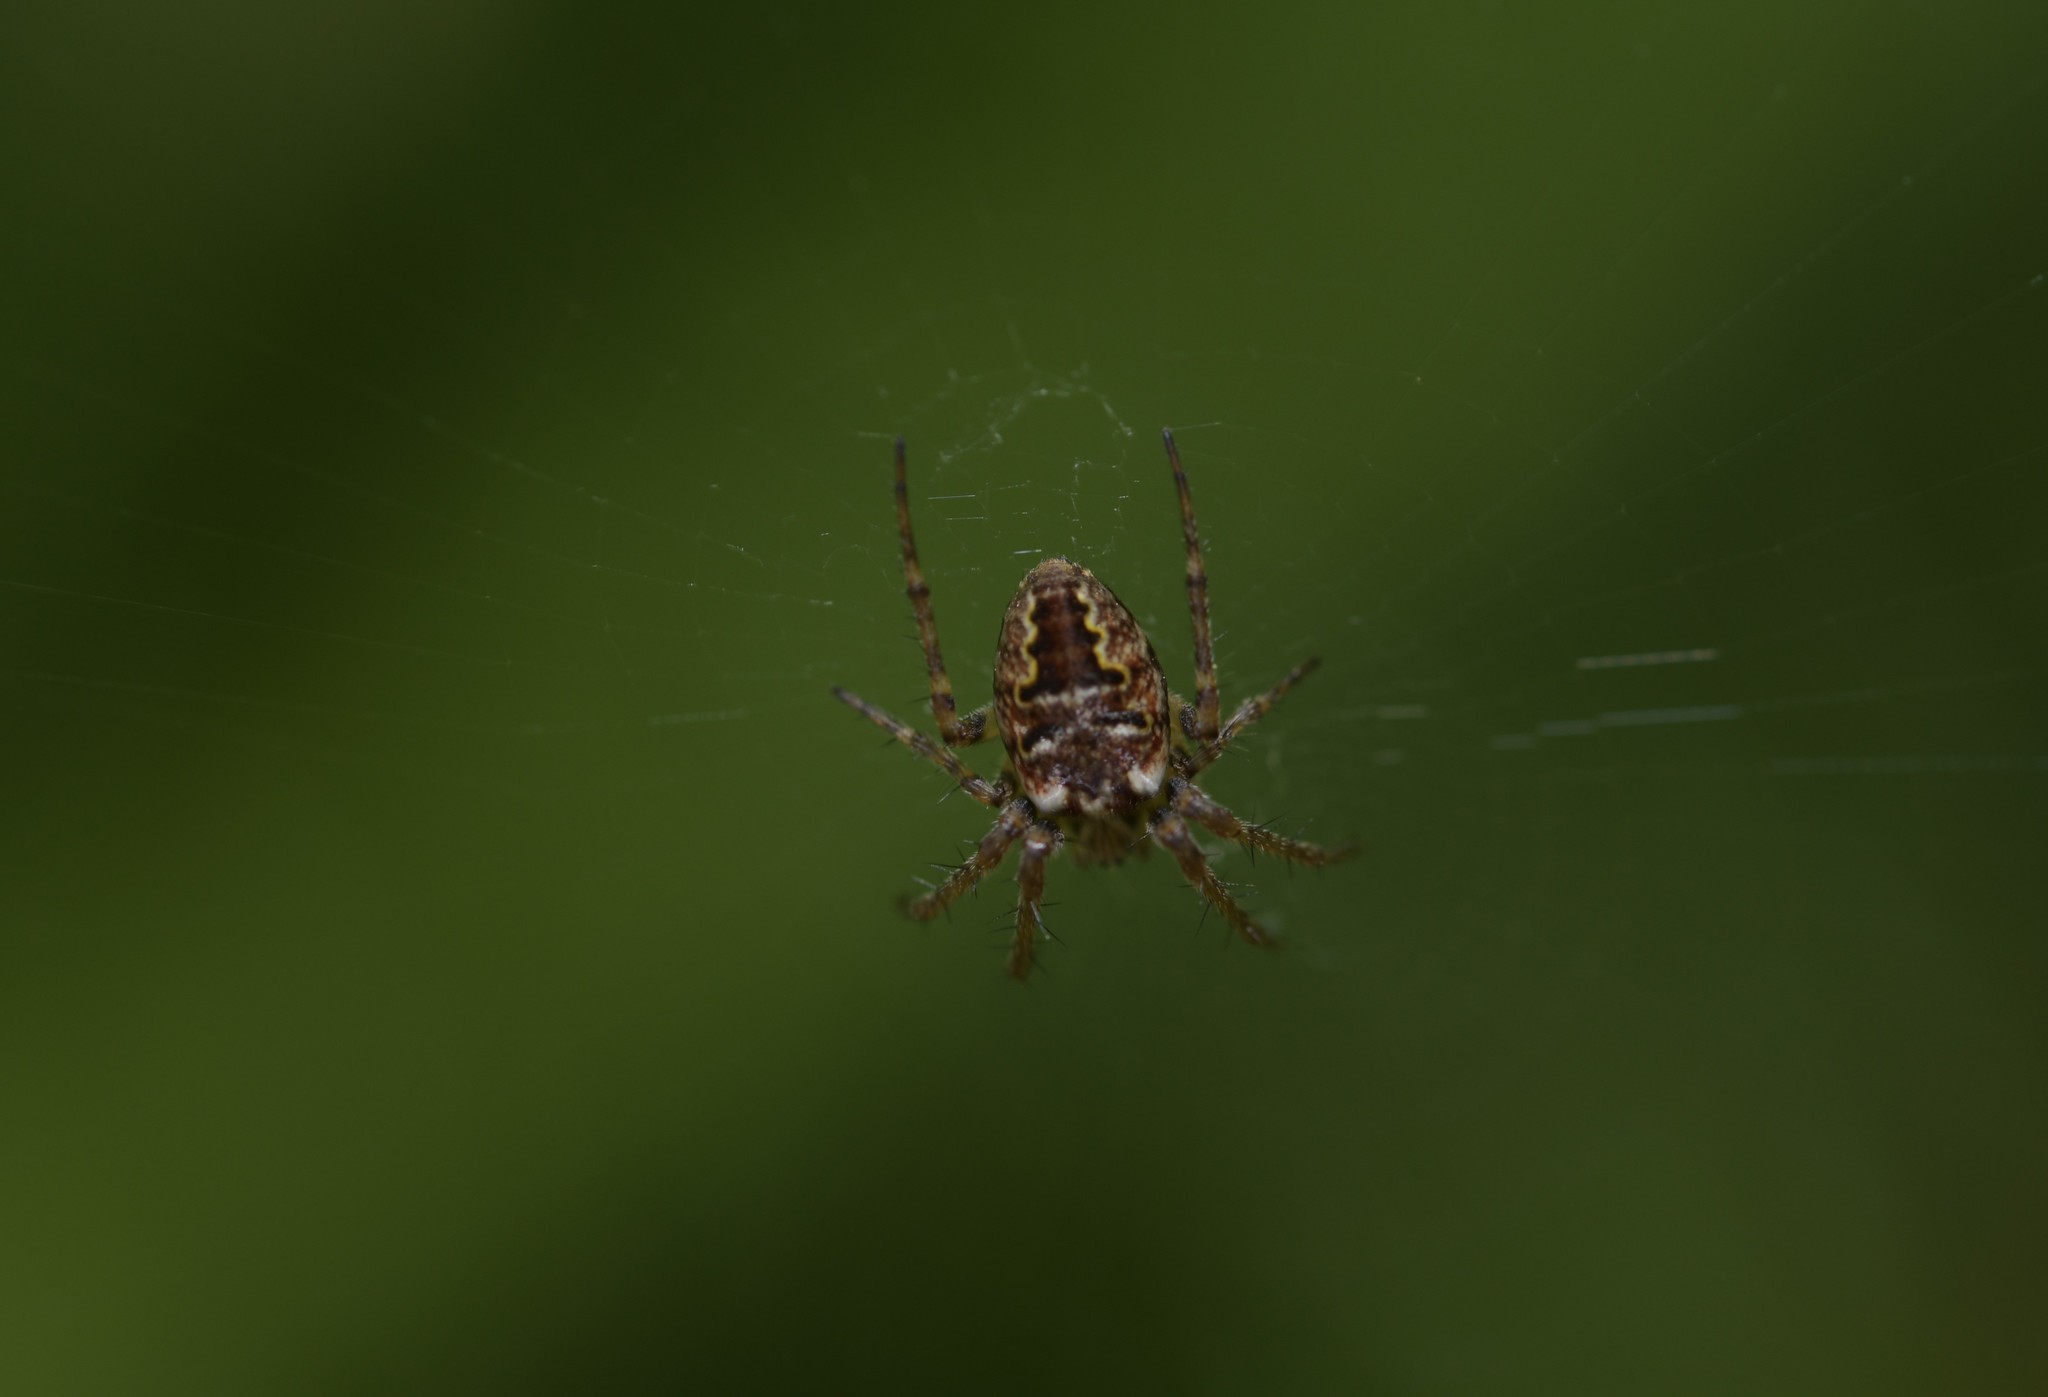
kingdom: Animalia
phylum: Arthropoda
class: Arachnida
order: Araneae
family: Araneidae
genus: Zilla
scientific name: Zilla diodia
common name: Zilla diodia
